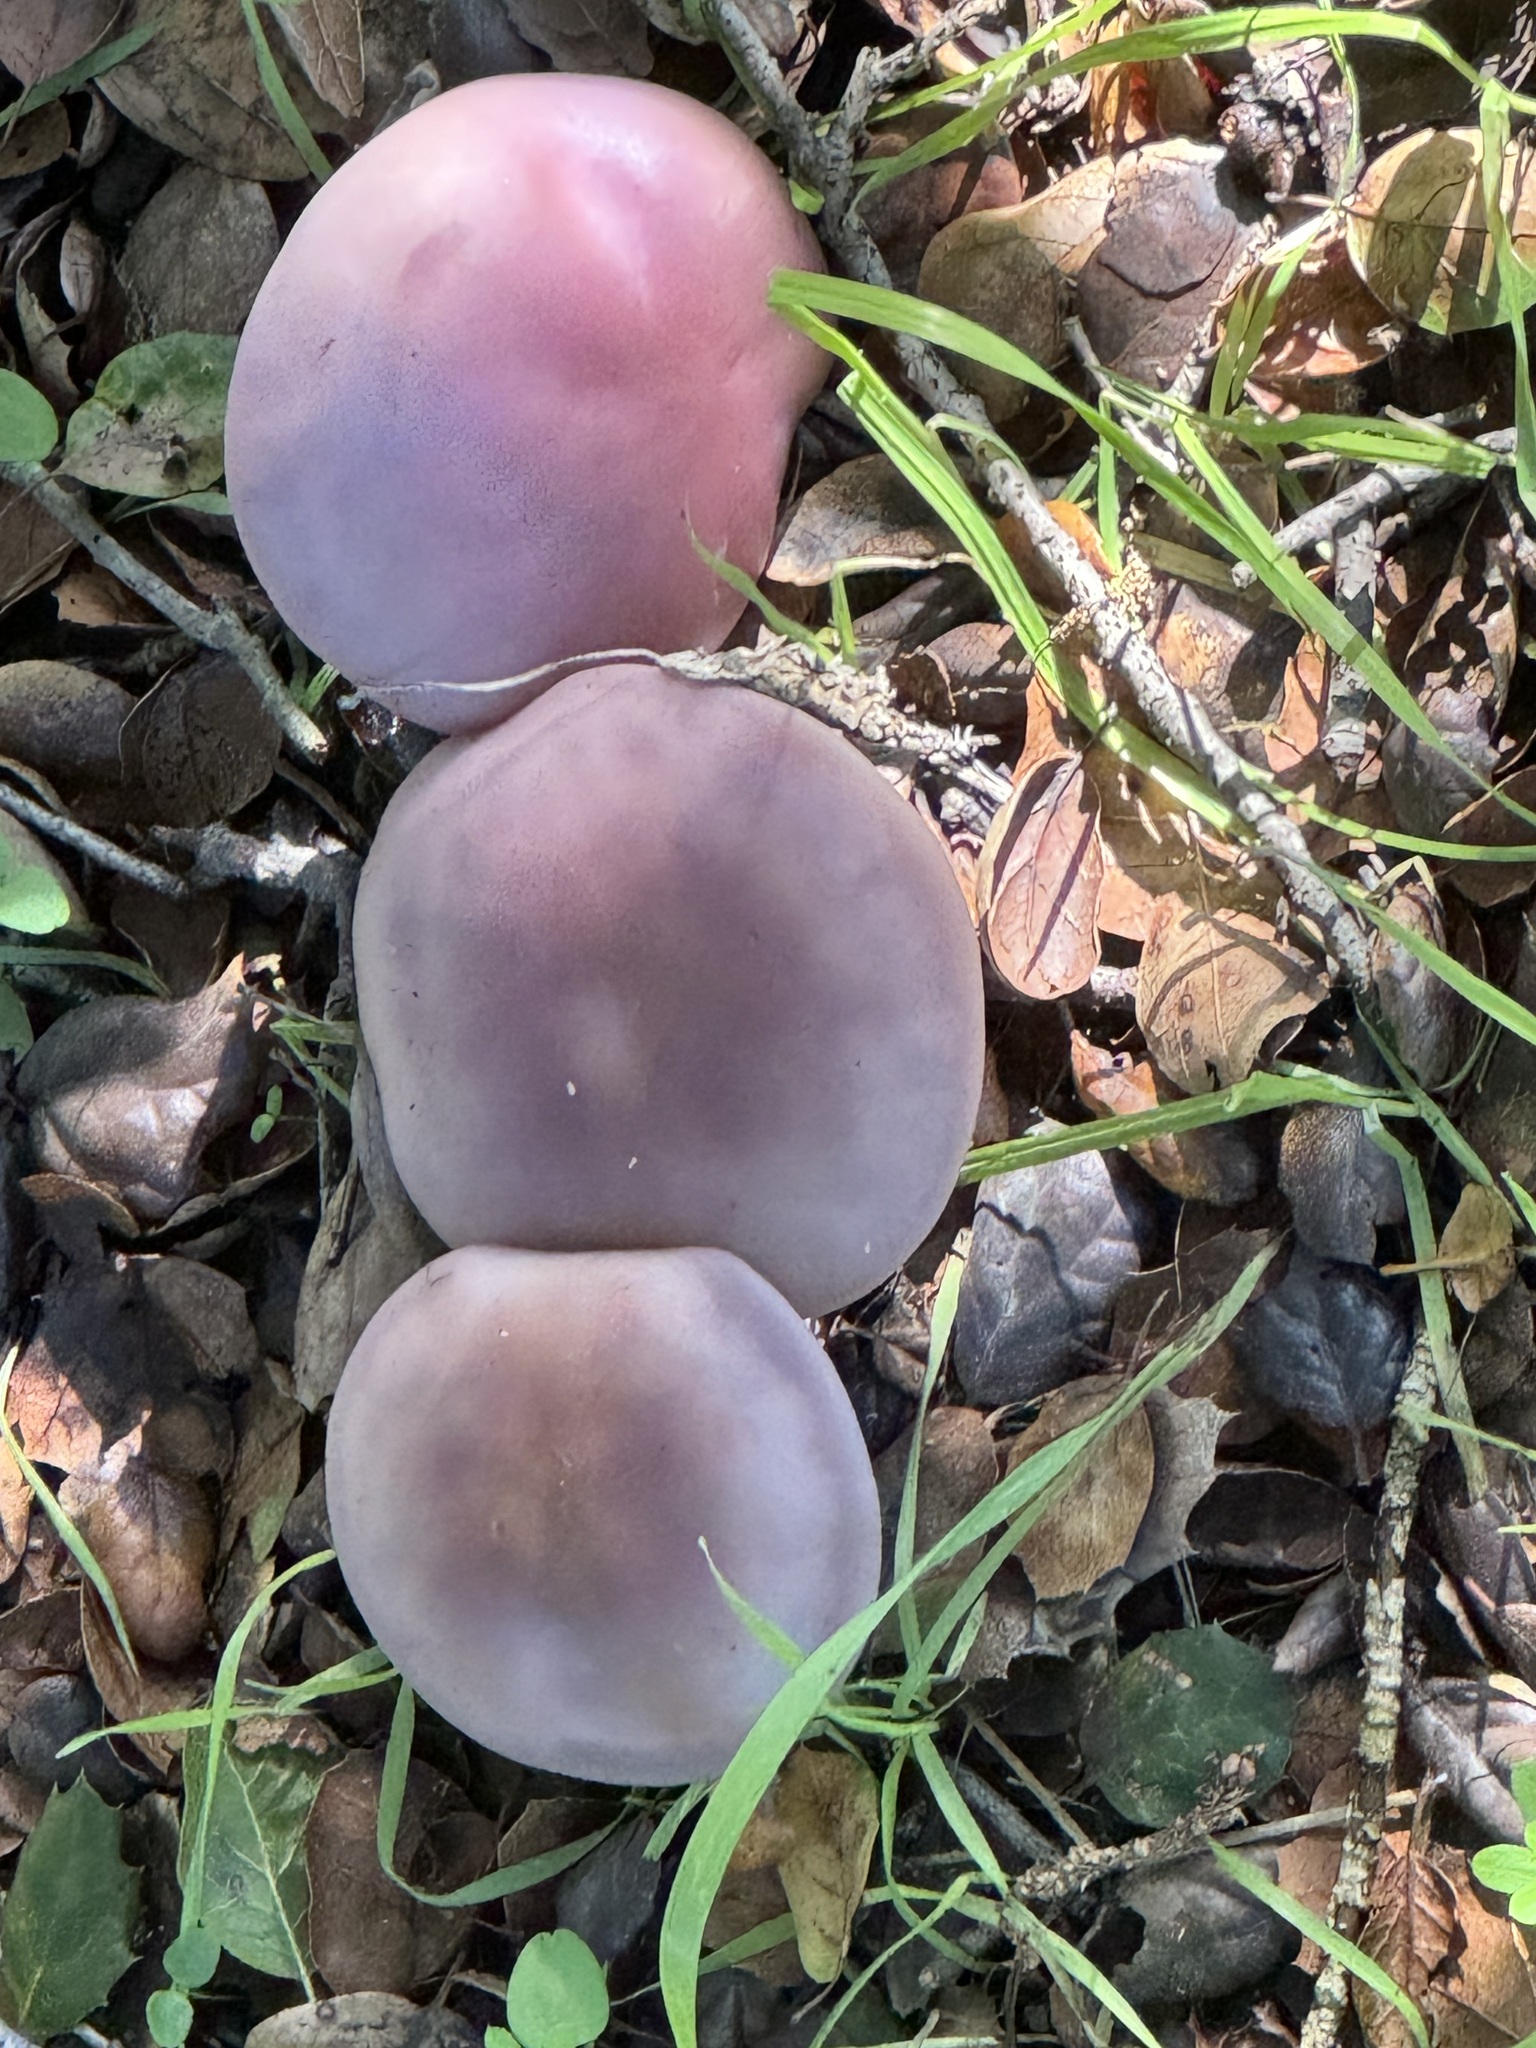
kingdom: Fungi
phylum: Basidiomycota
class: Agaricomycetes
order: Agaricales
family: Tricholomataceae
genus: Collybia
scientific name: Collybia
